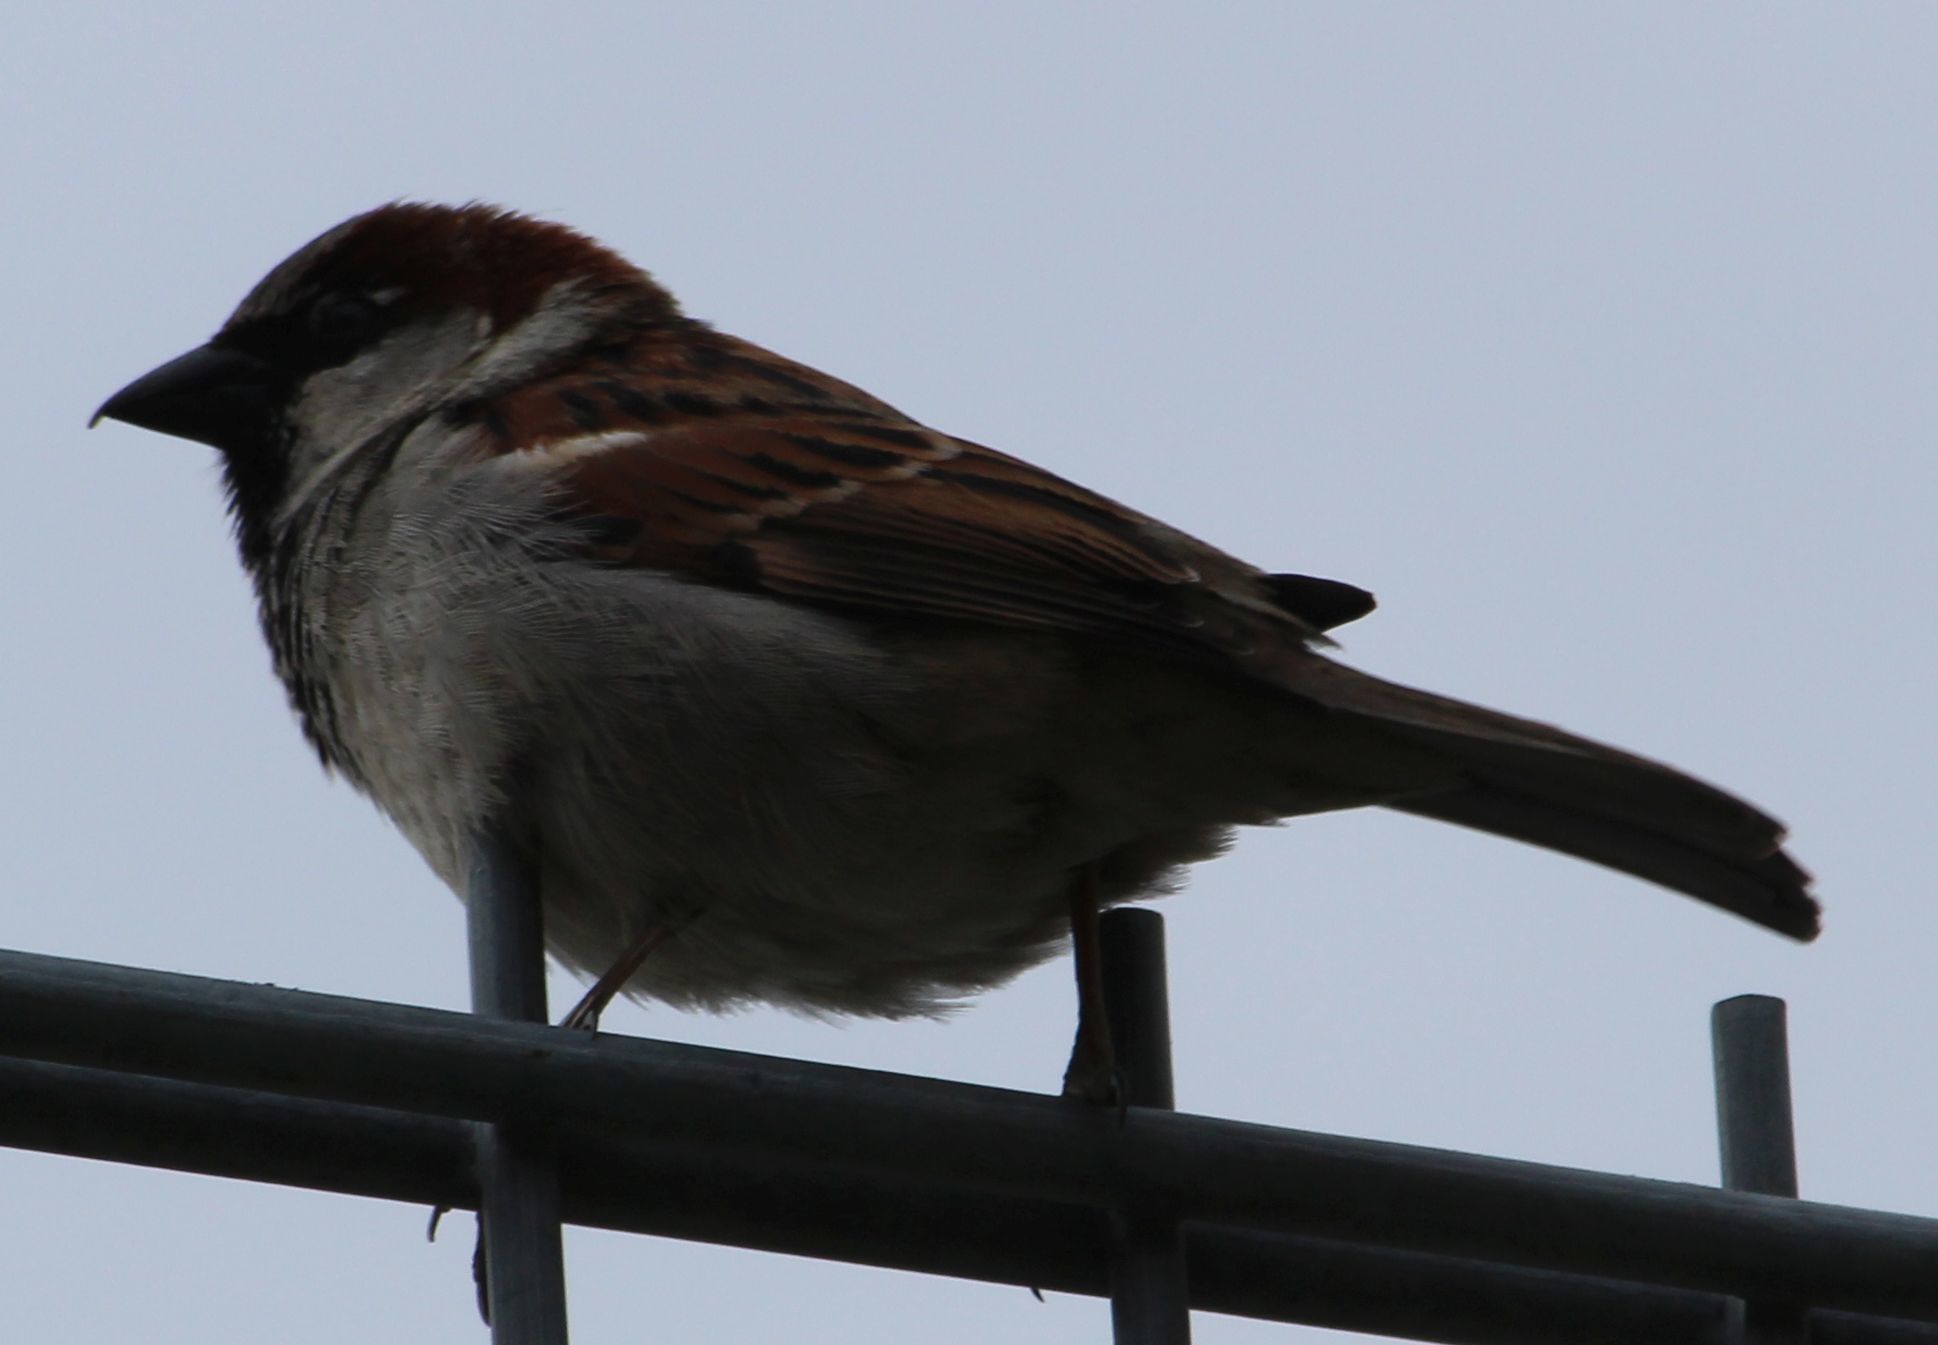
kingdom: Animalia
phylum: Chordata
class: Aves
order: Passeriformes
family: Passeridae
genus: Passer
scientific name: Passer domesticus
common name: House sparrow
